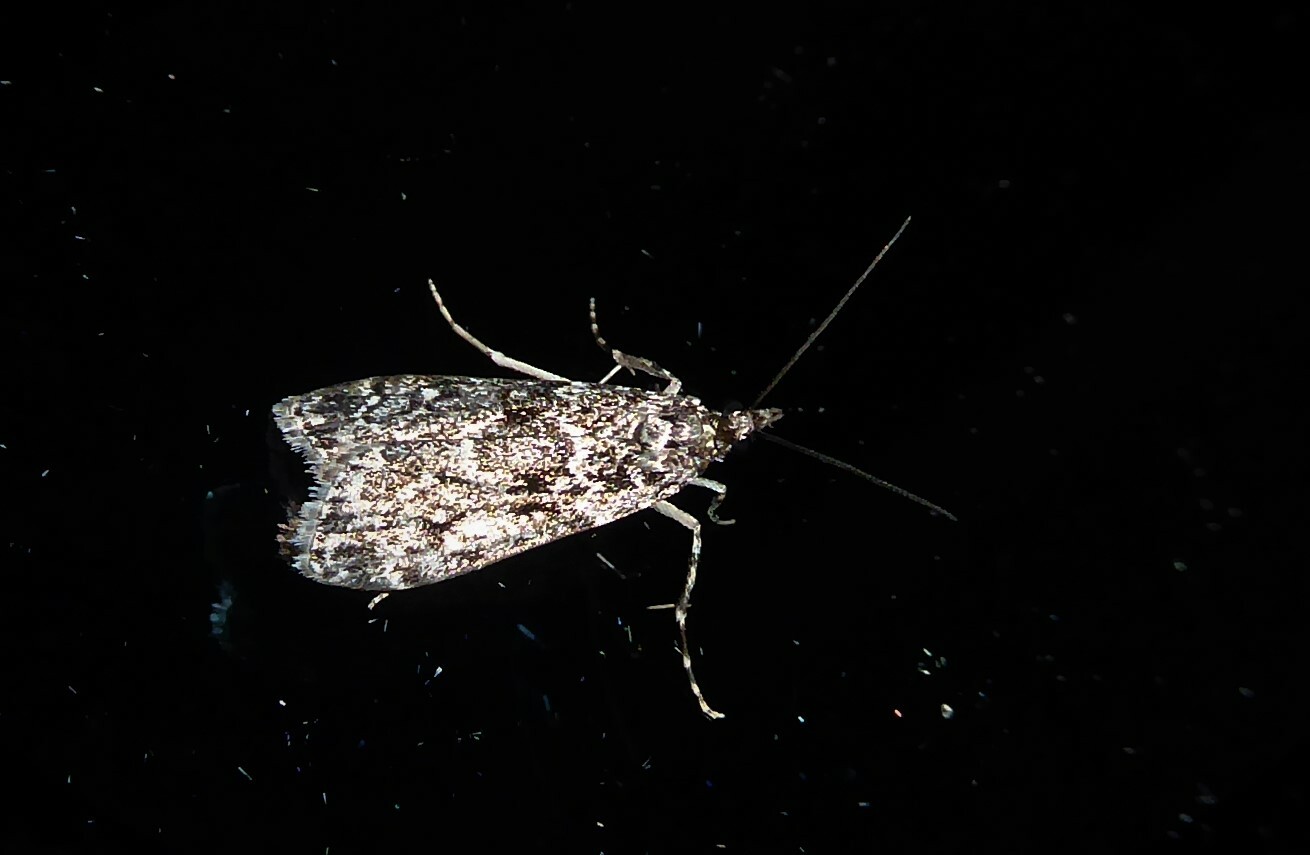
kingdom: Animalia
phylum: Arthropoda
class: Insecta
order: Lepidoptera
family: Crambidae
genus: Eudonia
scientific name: Eudonia philerga
